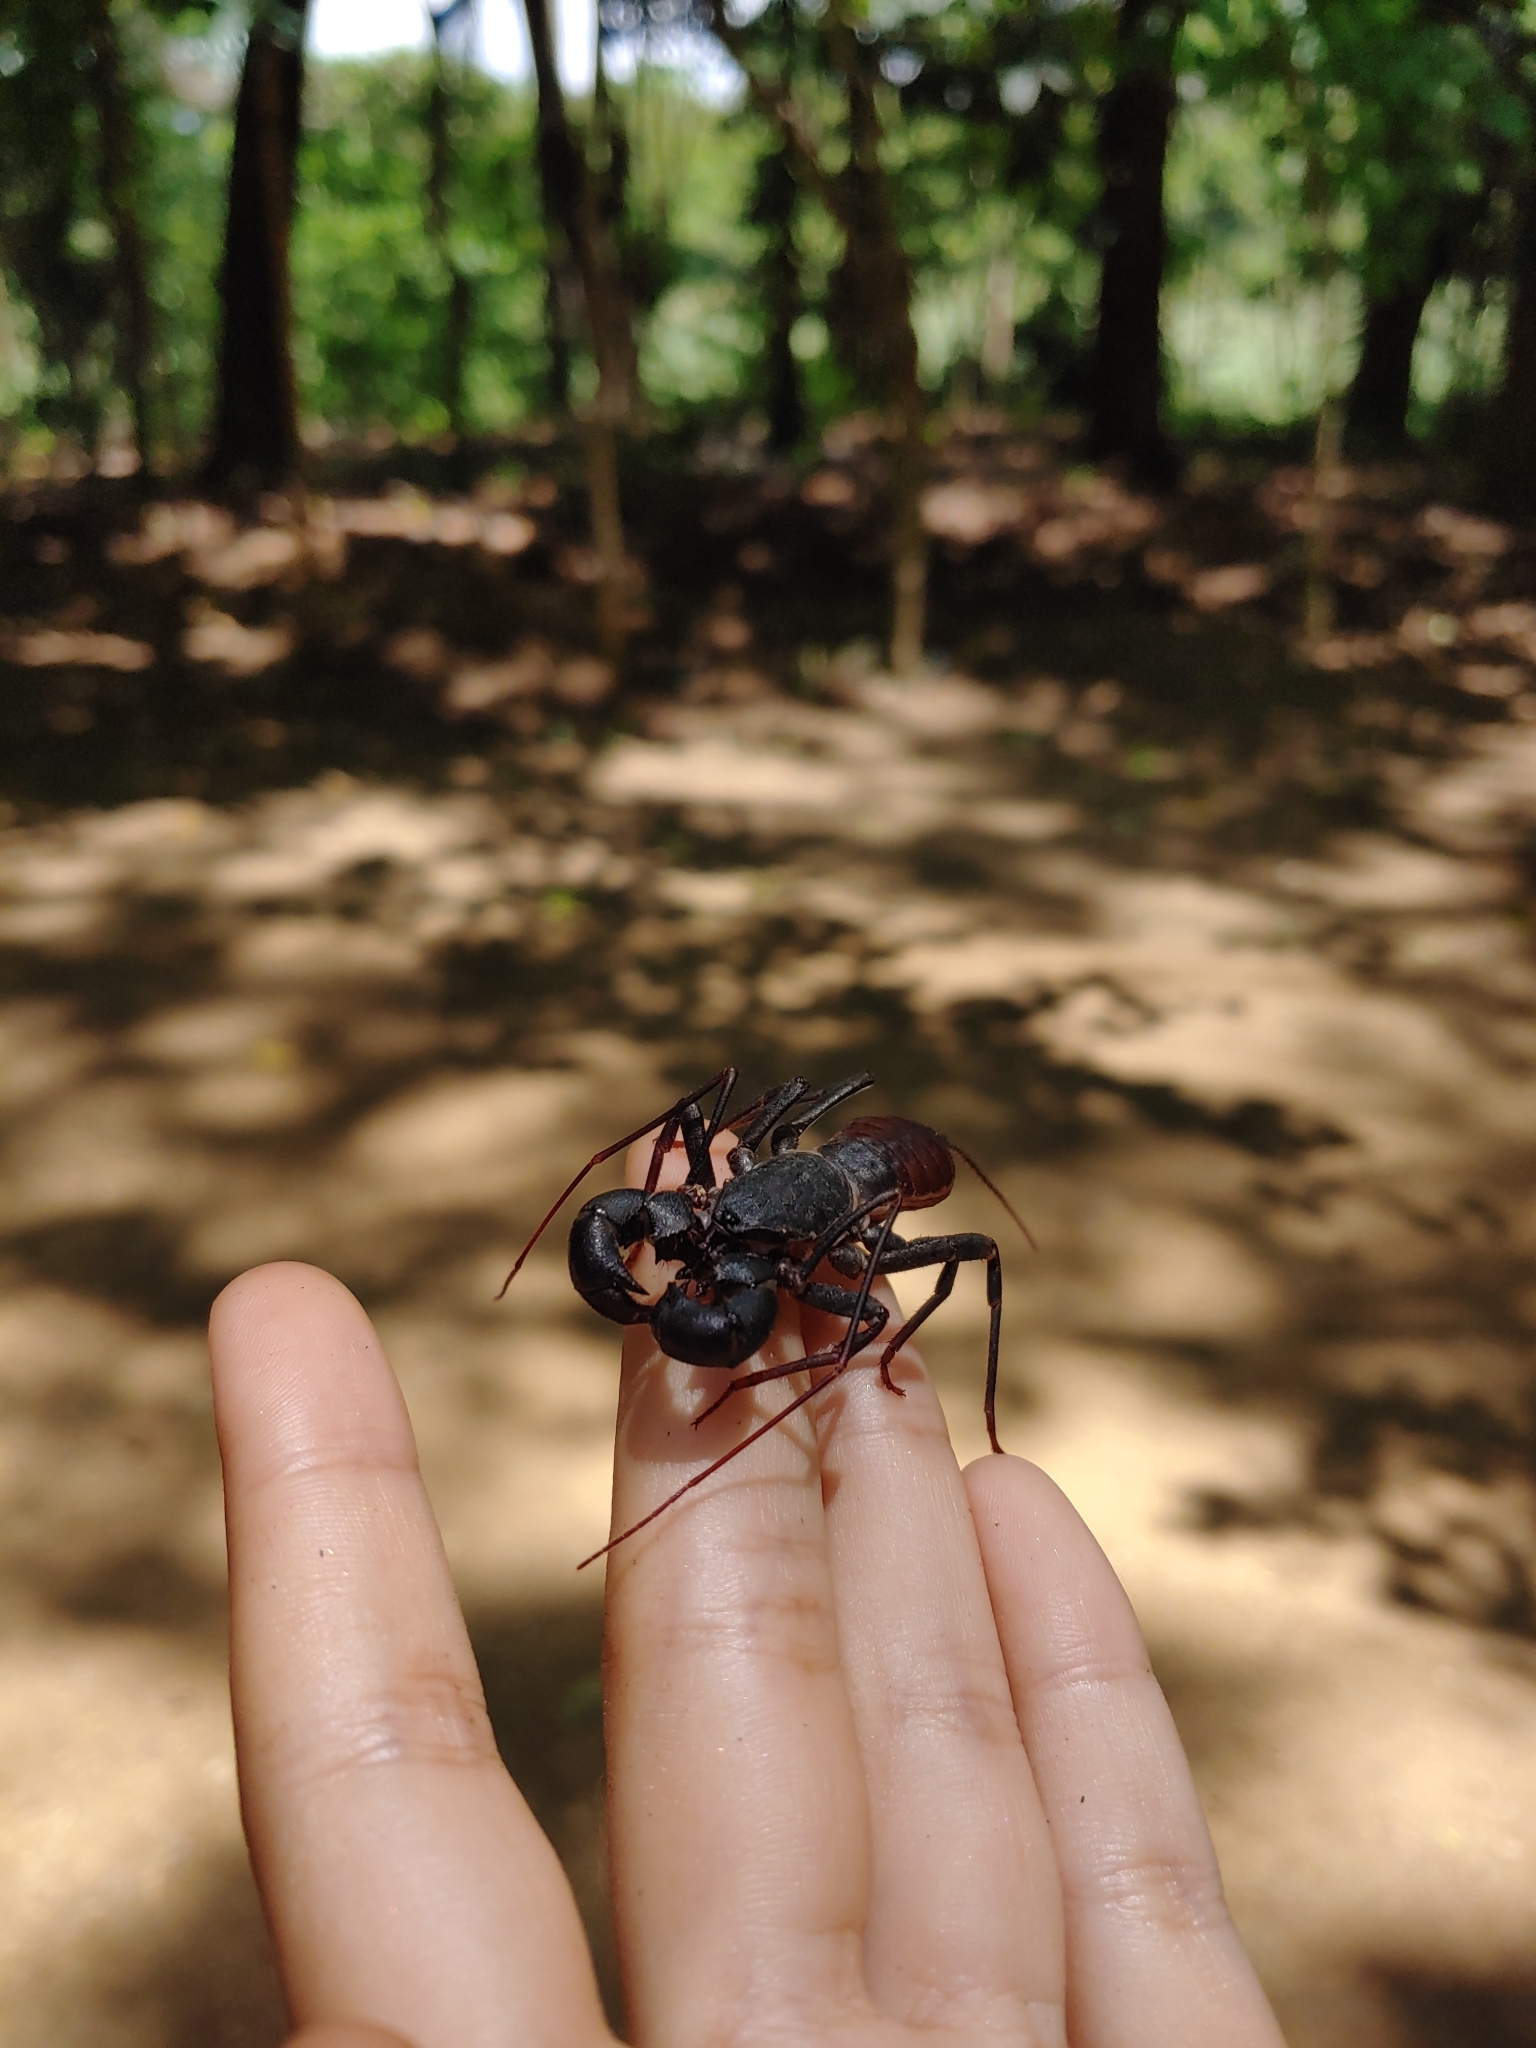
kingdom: Animalia
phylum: Arthropoda
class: Arachnida
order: Uropygi
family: Thelyphonidae
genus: Mastigoproctus
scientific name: Mastigoproctus proscorpio
